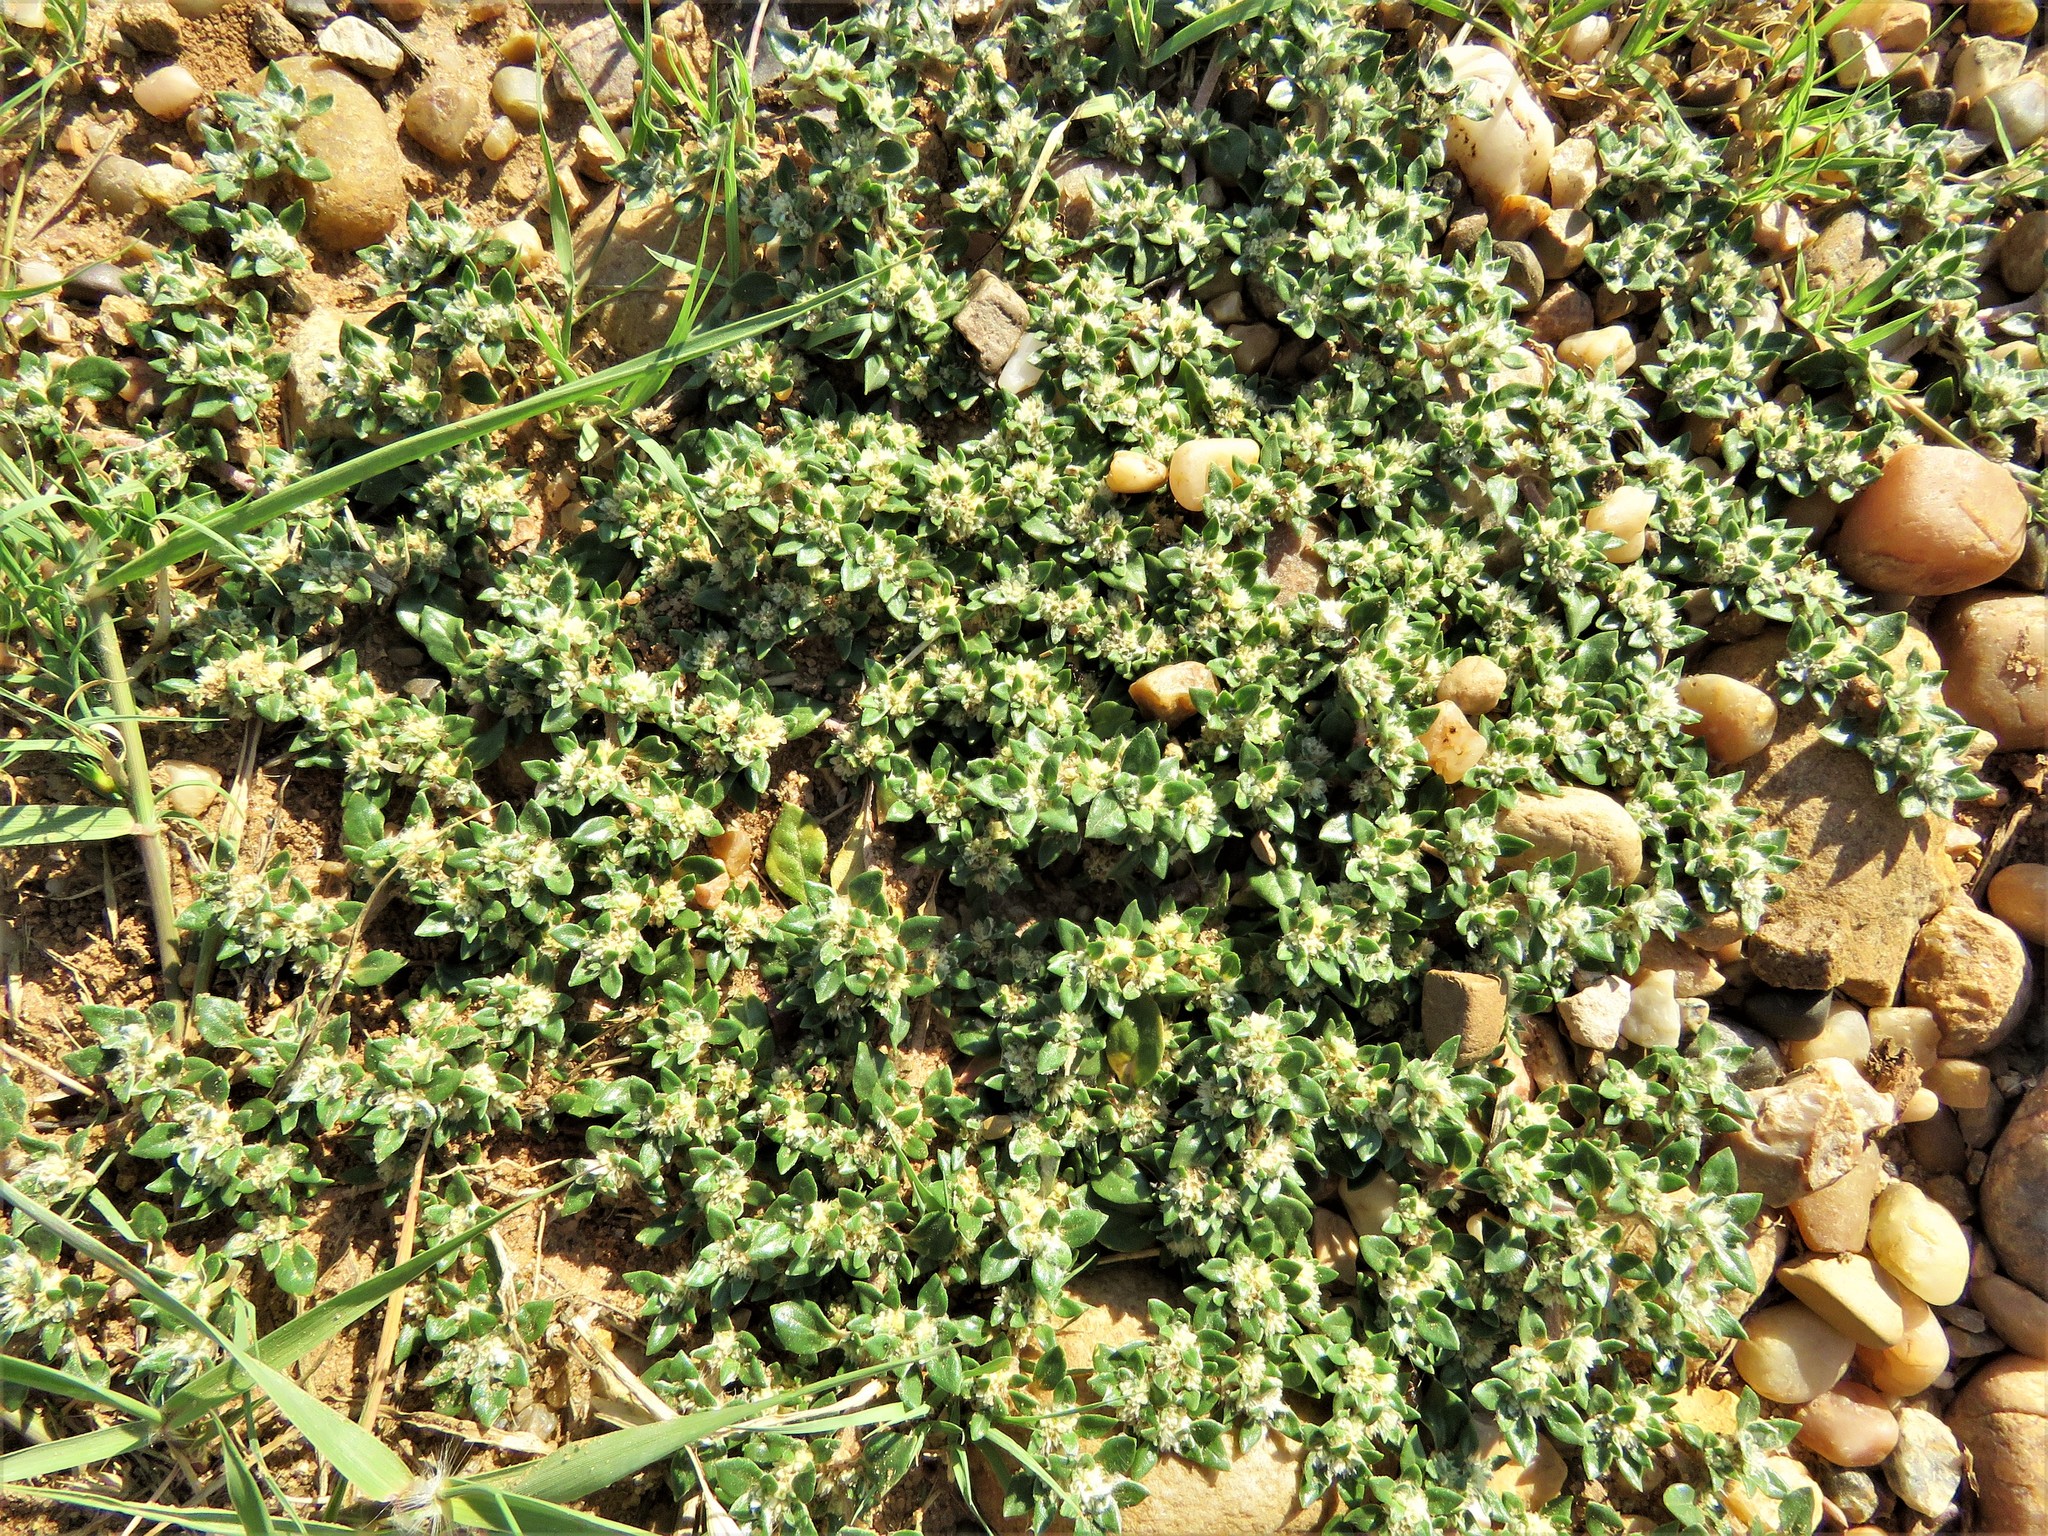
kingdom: Plantae
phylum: Tracheophyta
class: Magnoliopsida
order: Caryophyllales
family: Amaranthaceae
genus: Guilleminea
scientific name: Guilleminea densa
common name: Small matweed
